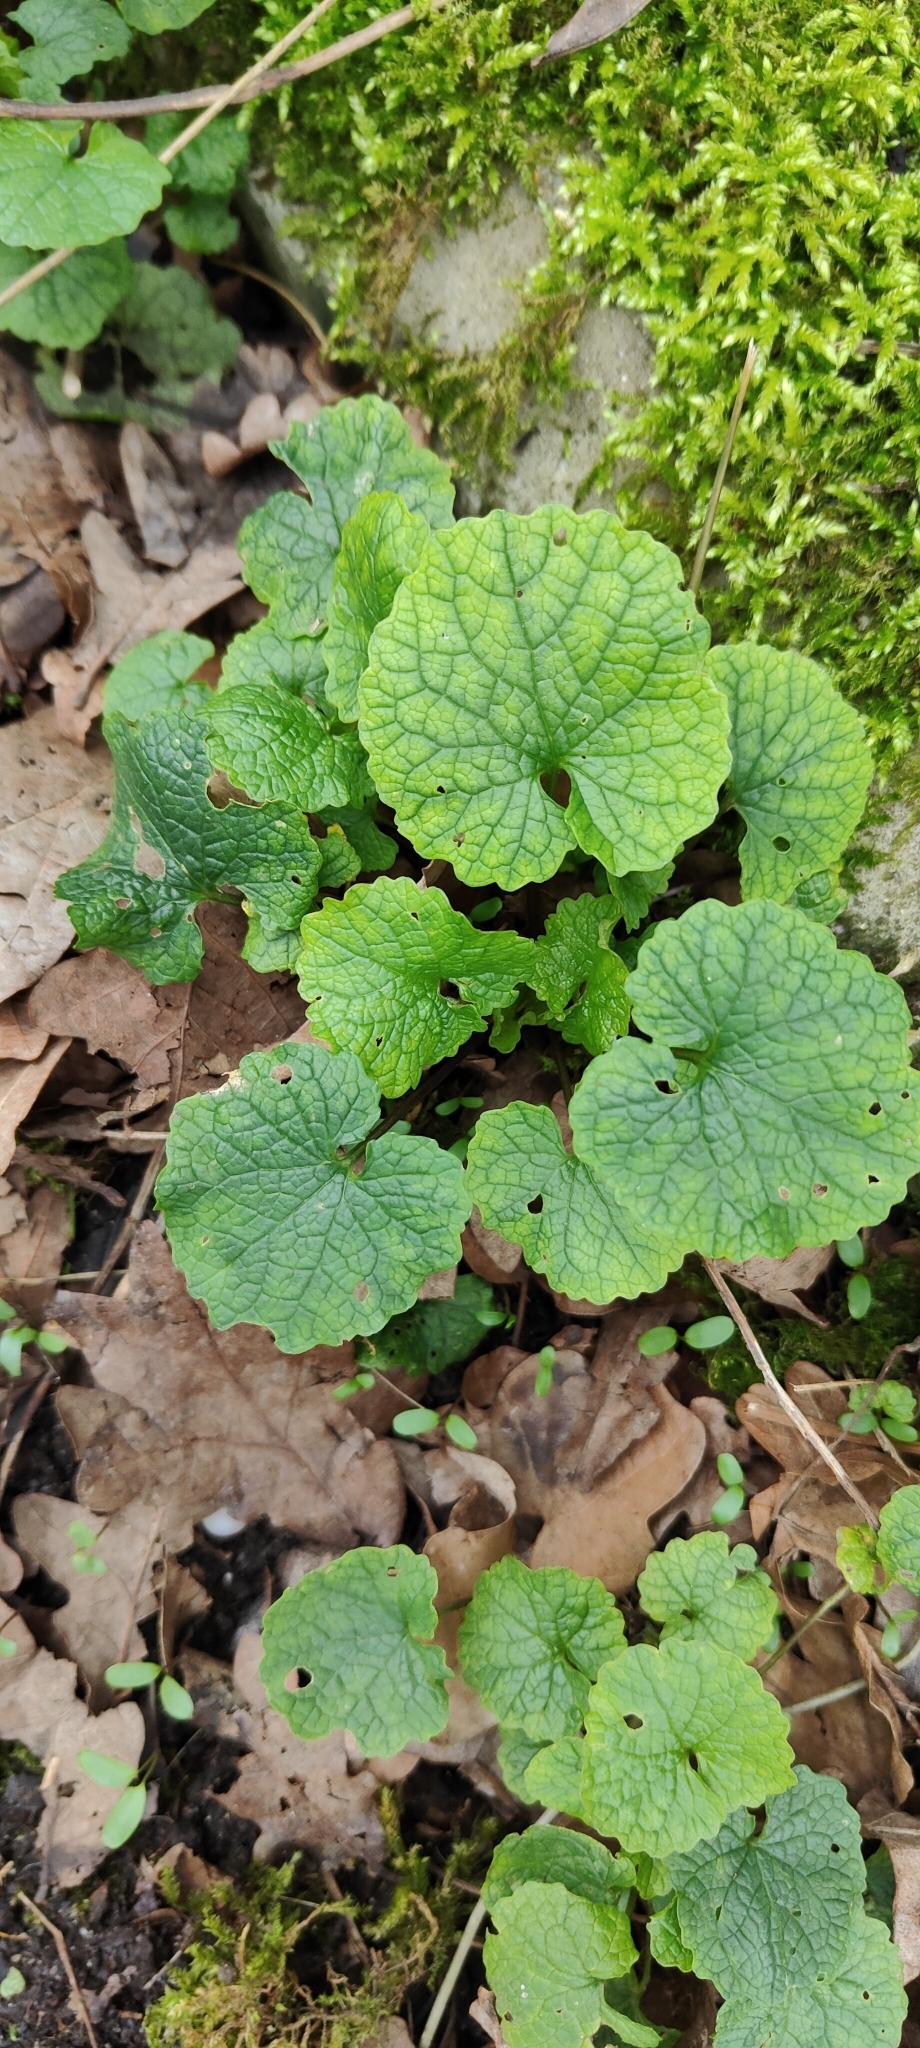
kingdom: Plantae
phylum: Tracheophyta
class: Magnoliopsida
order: Brassicales
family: Brassicaceae
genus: Alliaria
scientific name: Alliaria petiolata
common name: Garlic mustard
